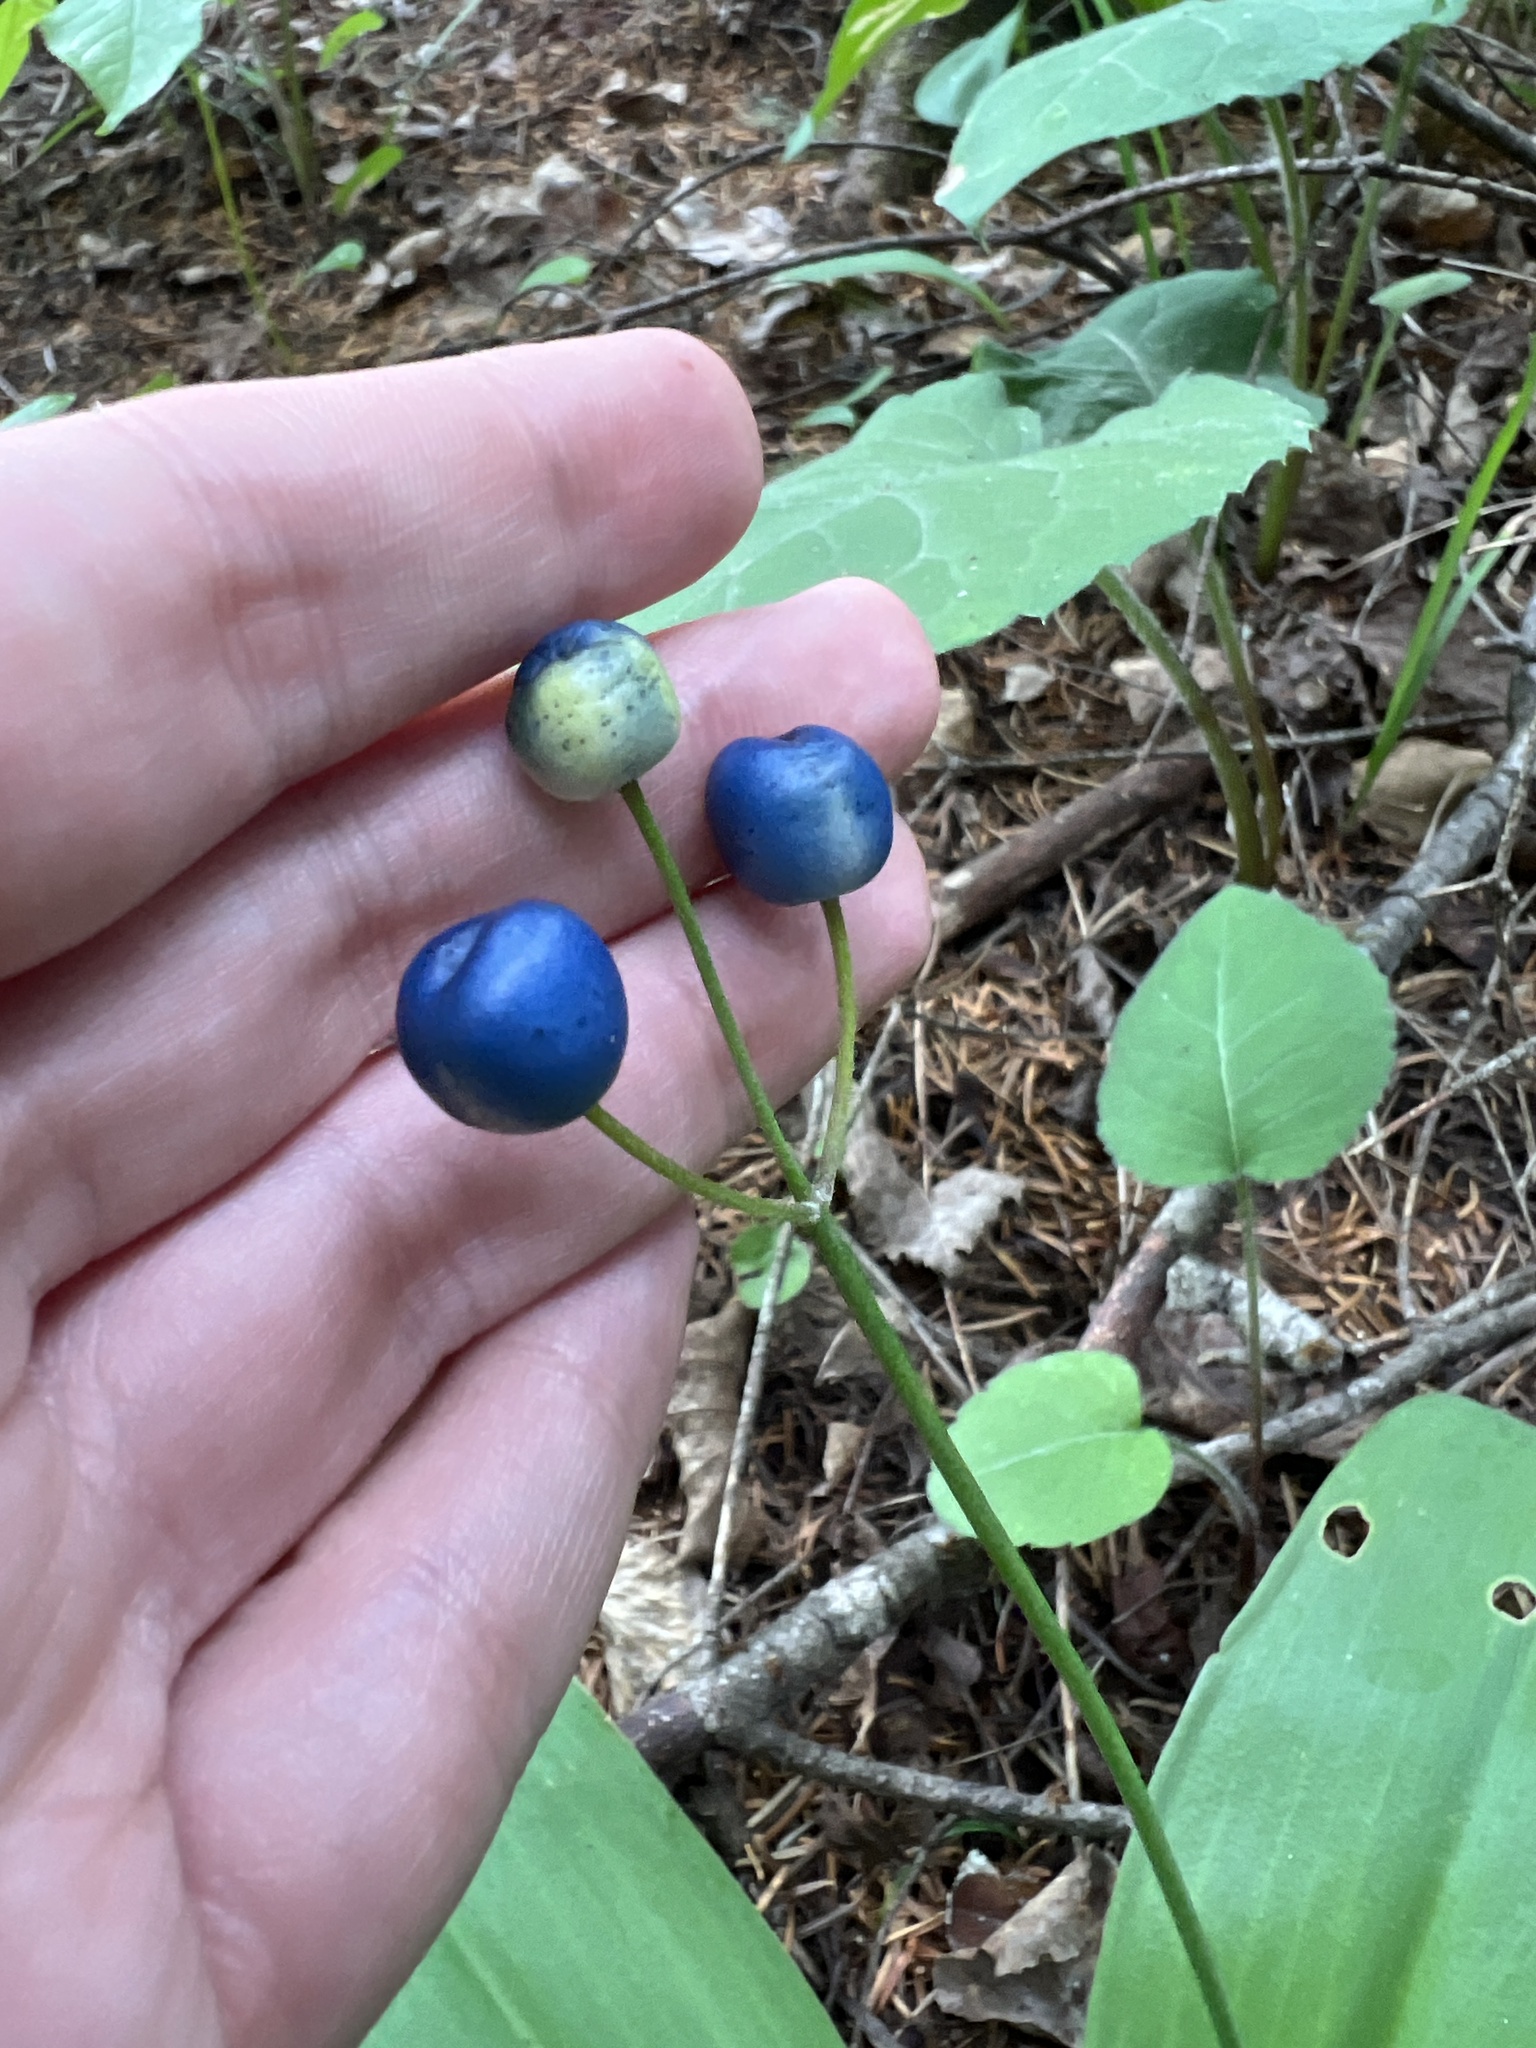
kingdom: Plantae
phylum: Tracheophyta
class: Liliopsida
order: Liliales
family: Liliaceae
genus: Clintonia
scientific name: Clintonia borealis
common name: Yellow clintonia
